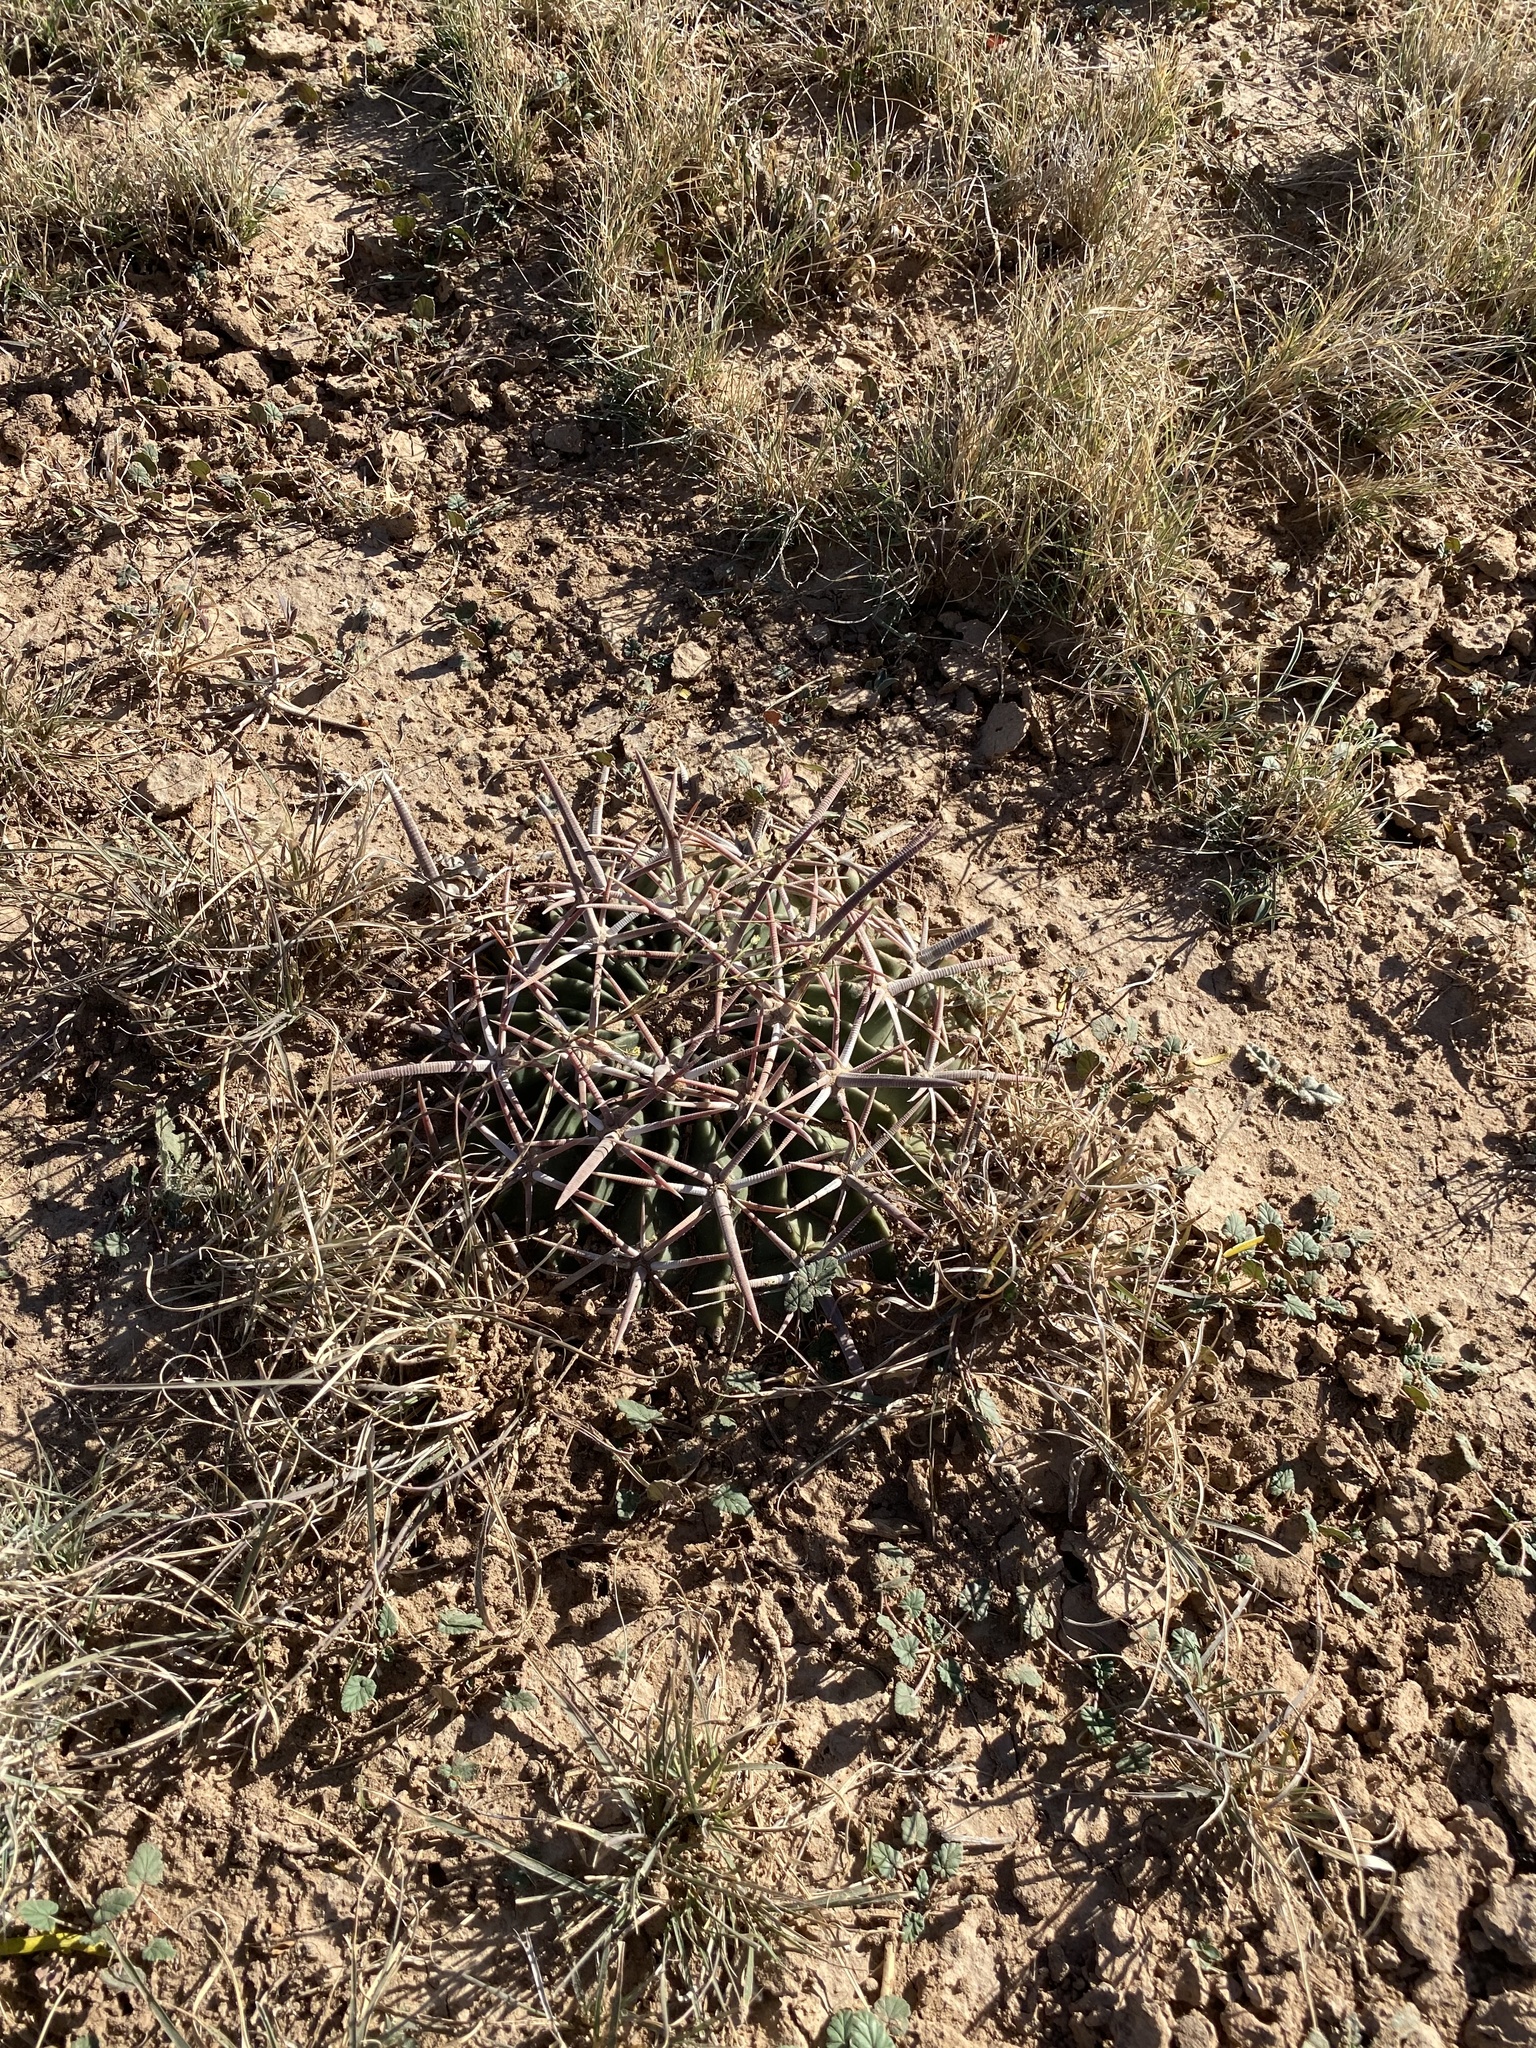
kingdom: Plantae
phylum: Tracheophyta
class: Magnoliopsida
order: Caryophyllales
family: Cactaceae
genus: Echinocactus
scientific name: Echinocactus texensis
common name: Devil's pincushion
